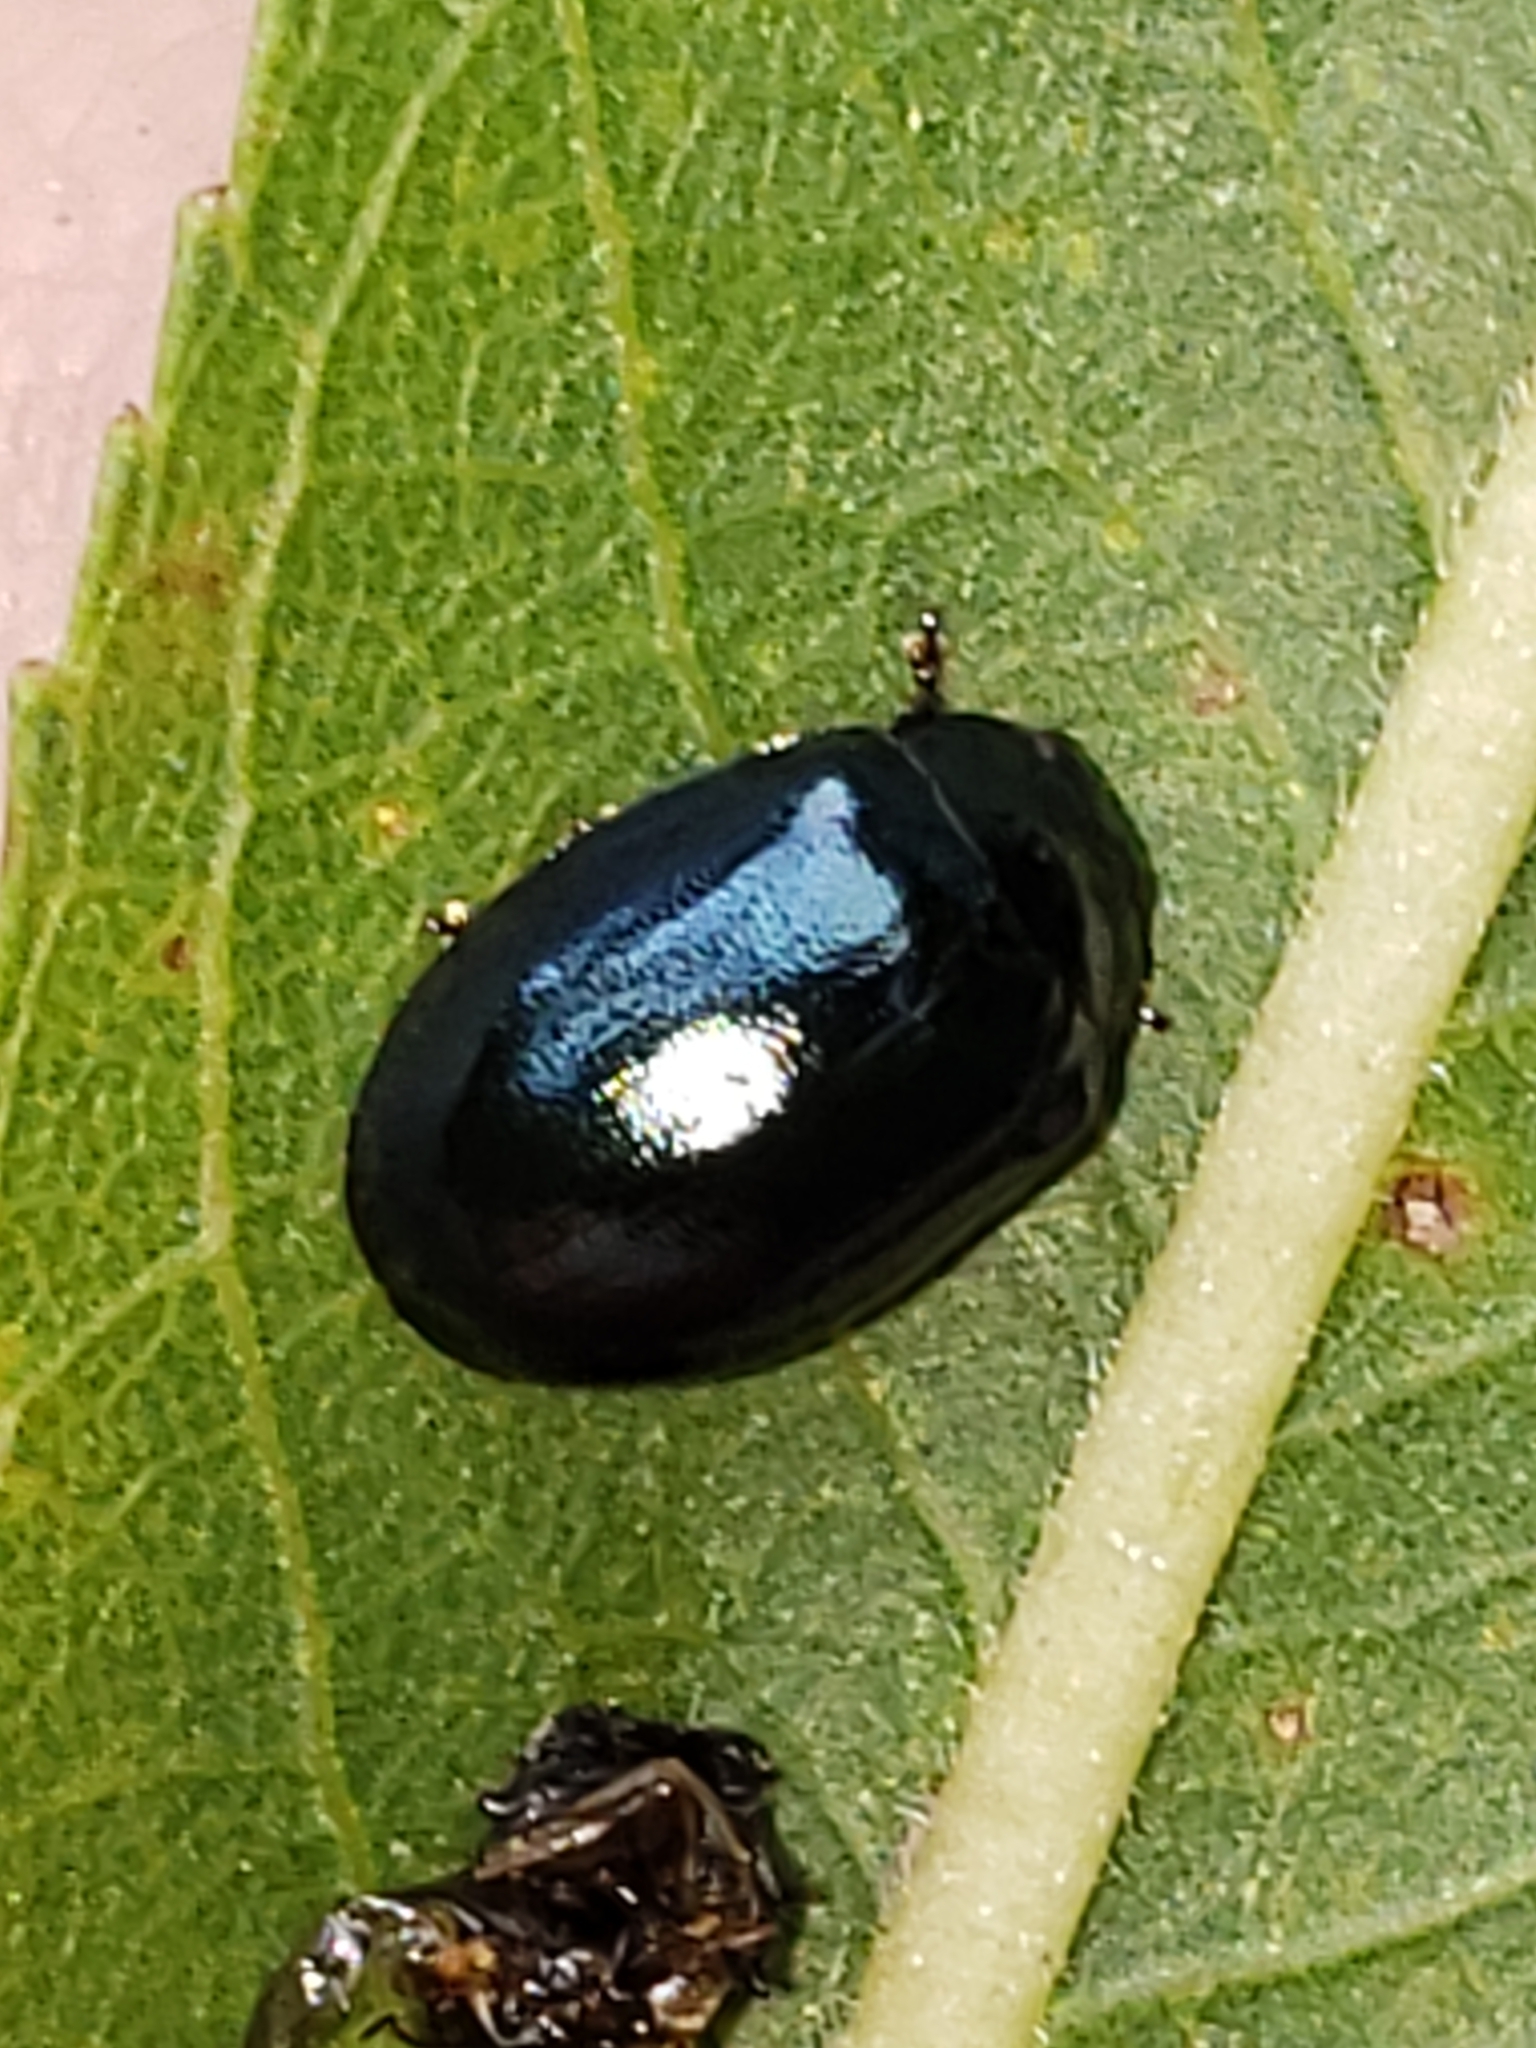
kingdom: Animalia
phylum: Arthropoda
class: Insecta
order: Coleoptera
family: Chrysomelidae
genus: Plagiodera
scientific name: Plagiodera versicolora
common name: Imported willow leaf beetle
